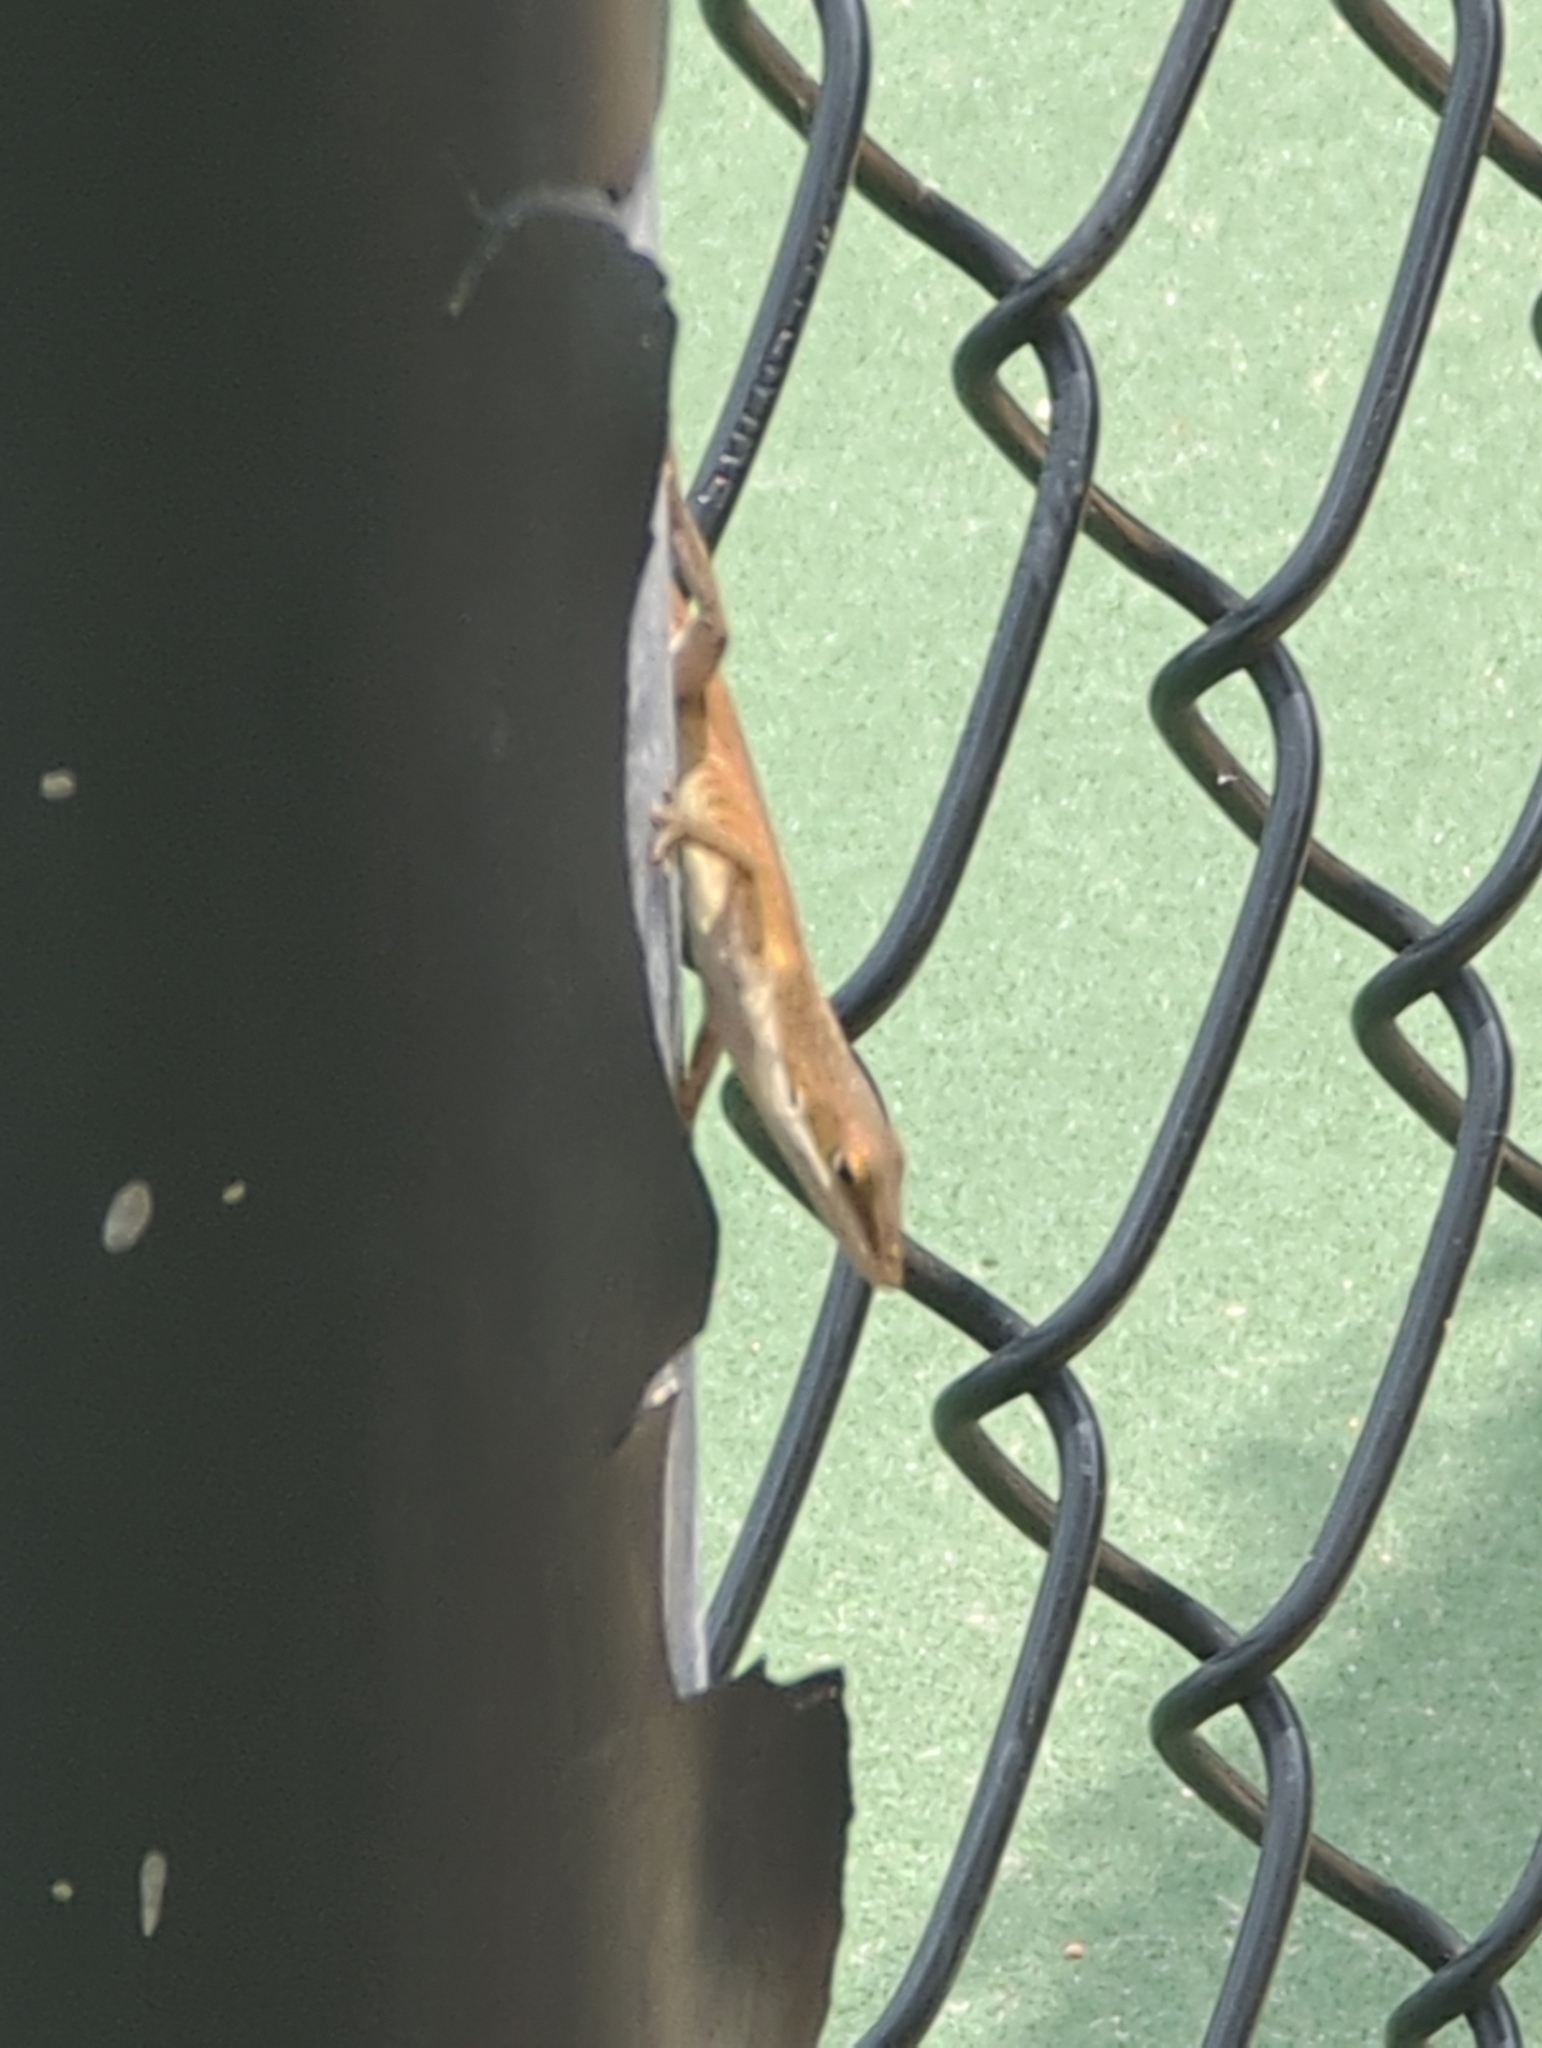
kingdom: Animalia
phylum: Chordata
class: Squamata
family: Dactyloidae
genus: Anolis
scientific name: Anolis carolinensis
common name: Green anole
